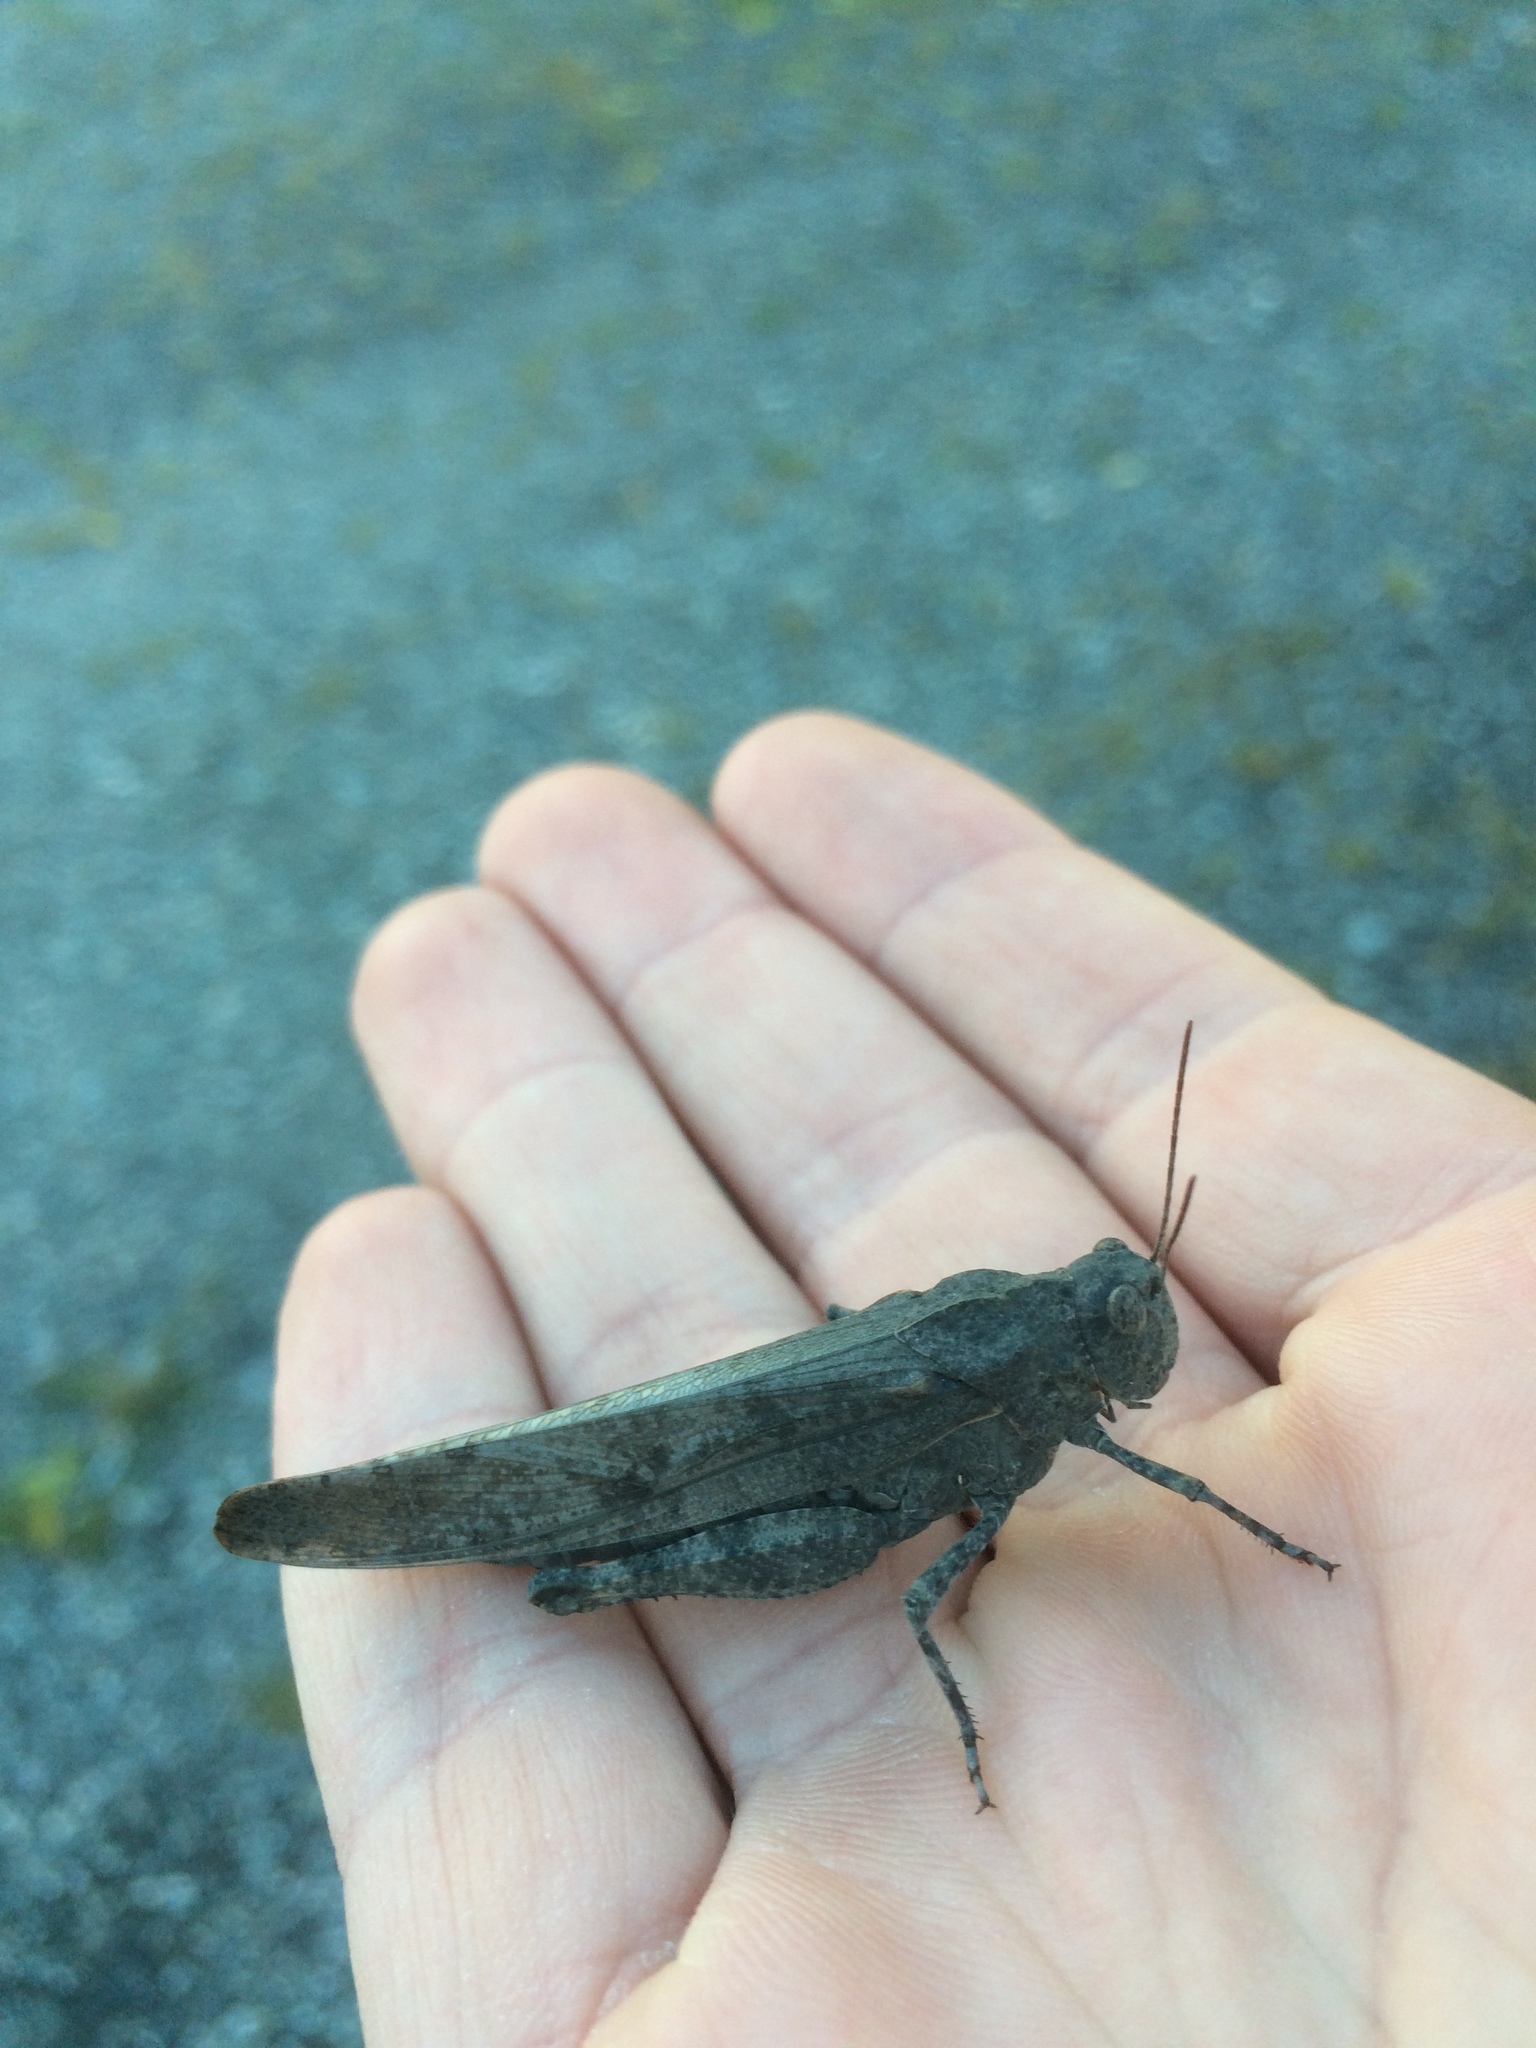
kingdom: Animalia
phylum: Arthropoda
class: Insecta
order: Orthoptera
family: Acrididae
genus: Dissosteira
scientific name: Dissosteira carolina
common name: Carolina grasshopper
